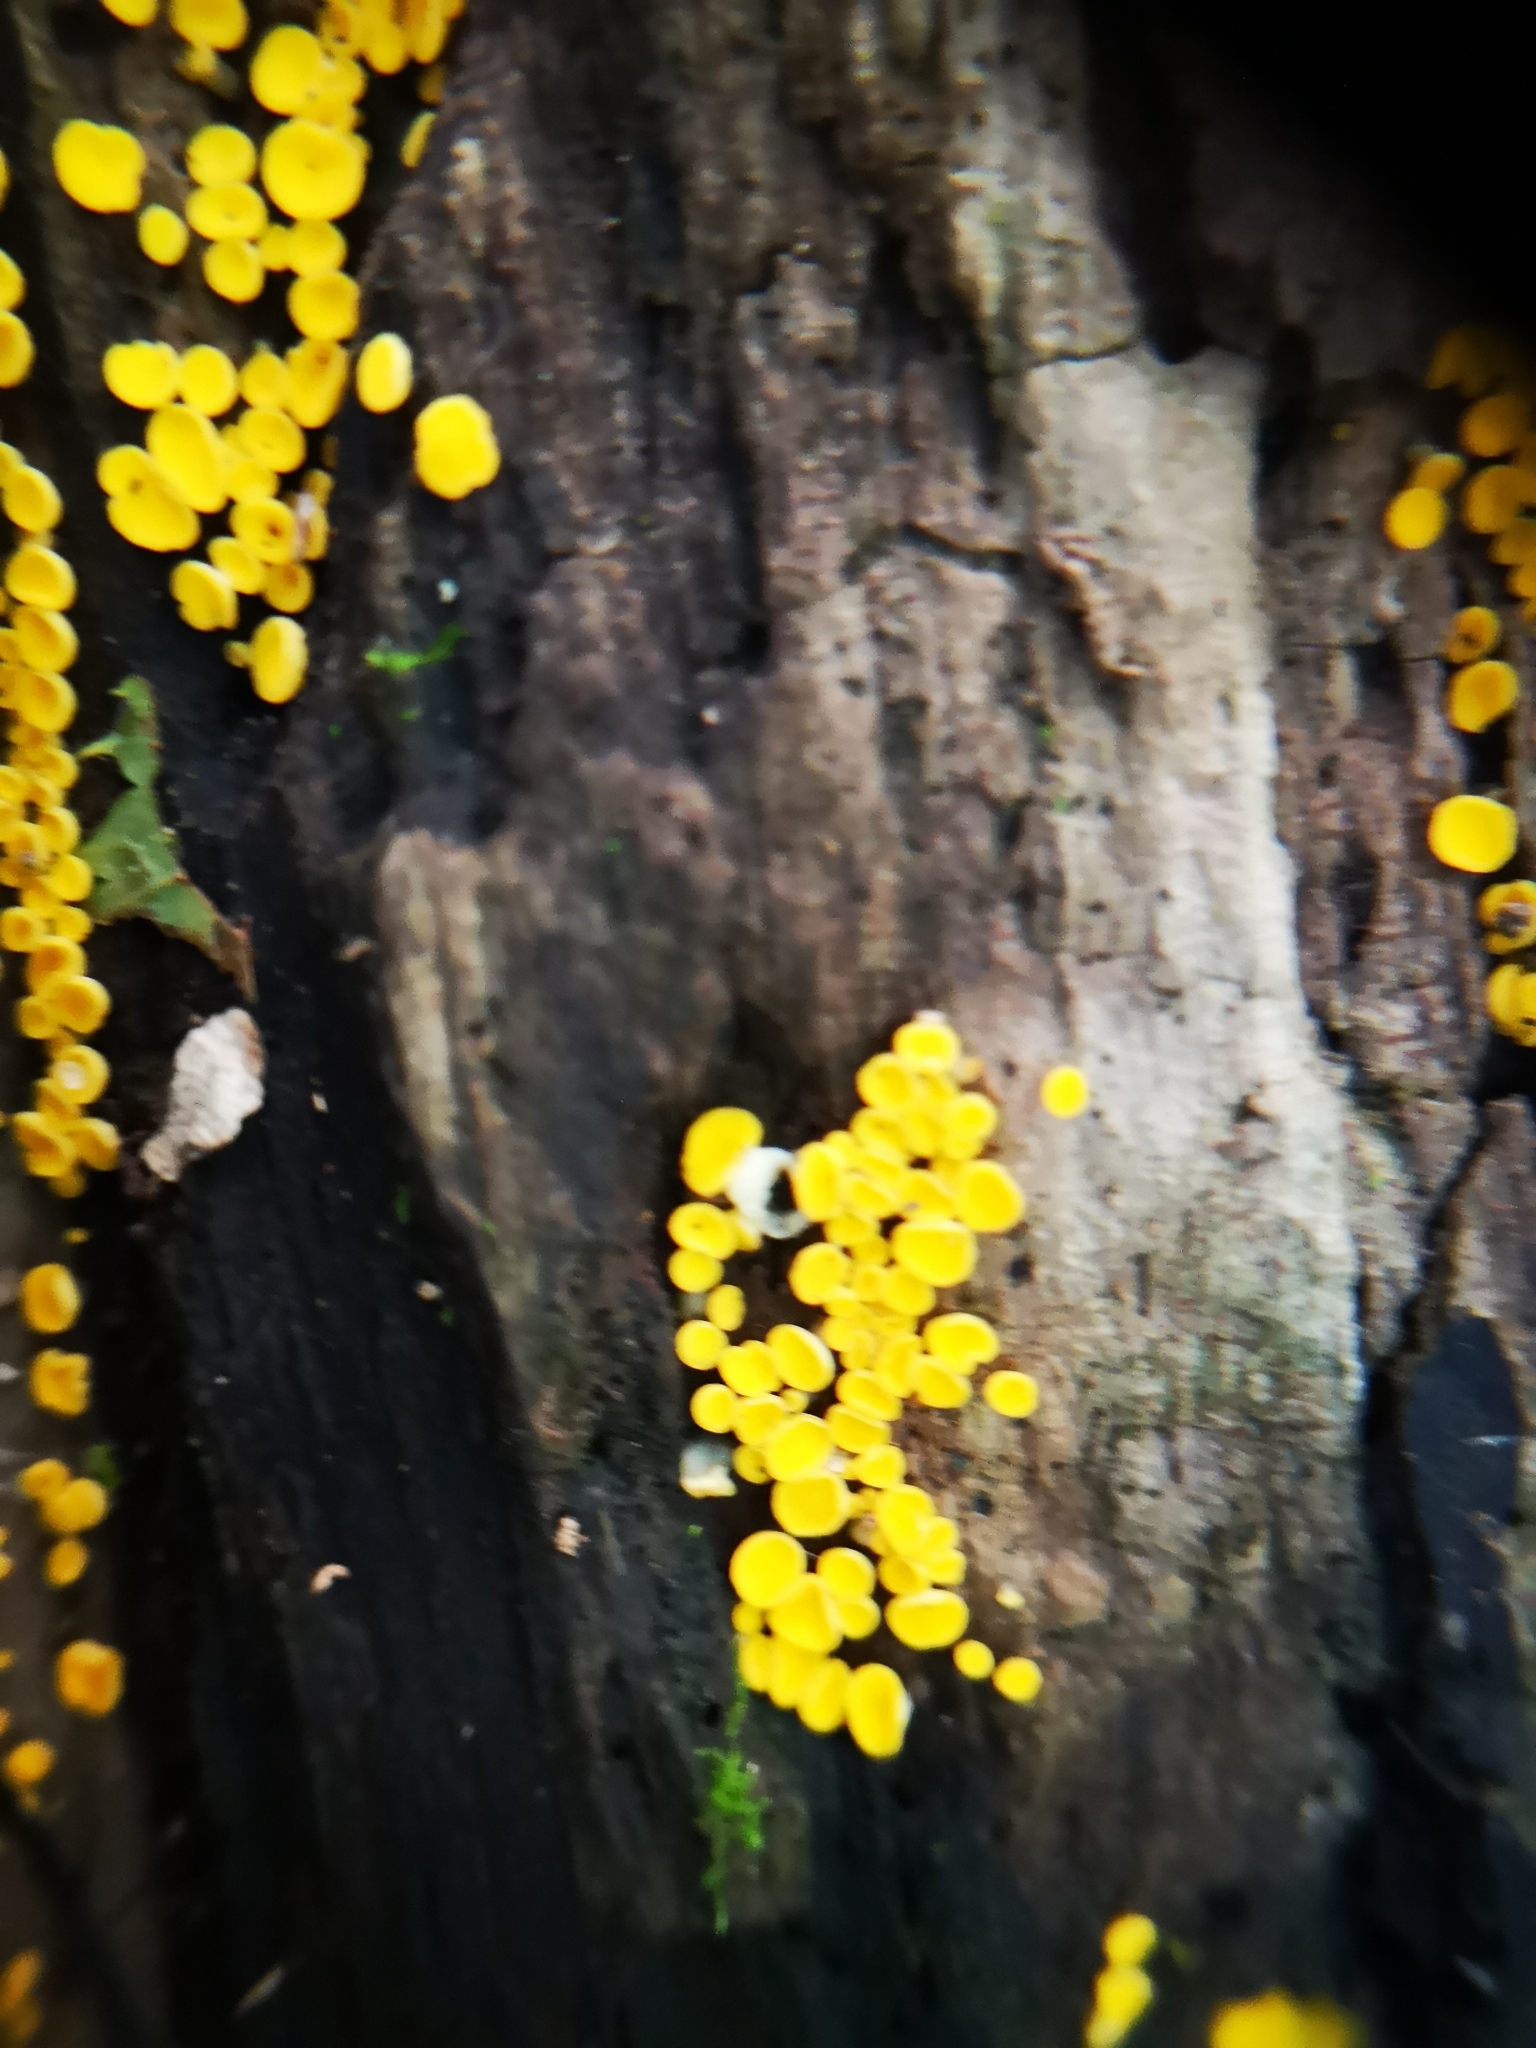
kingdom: Fungi
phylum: Ascomycota
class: Leotiomycetes
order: Helotiales
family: Pezizellaceae
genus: Calycina
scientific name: Calycina citrina
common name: Yellow fairy cups
